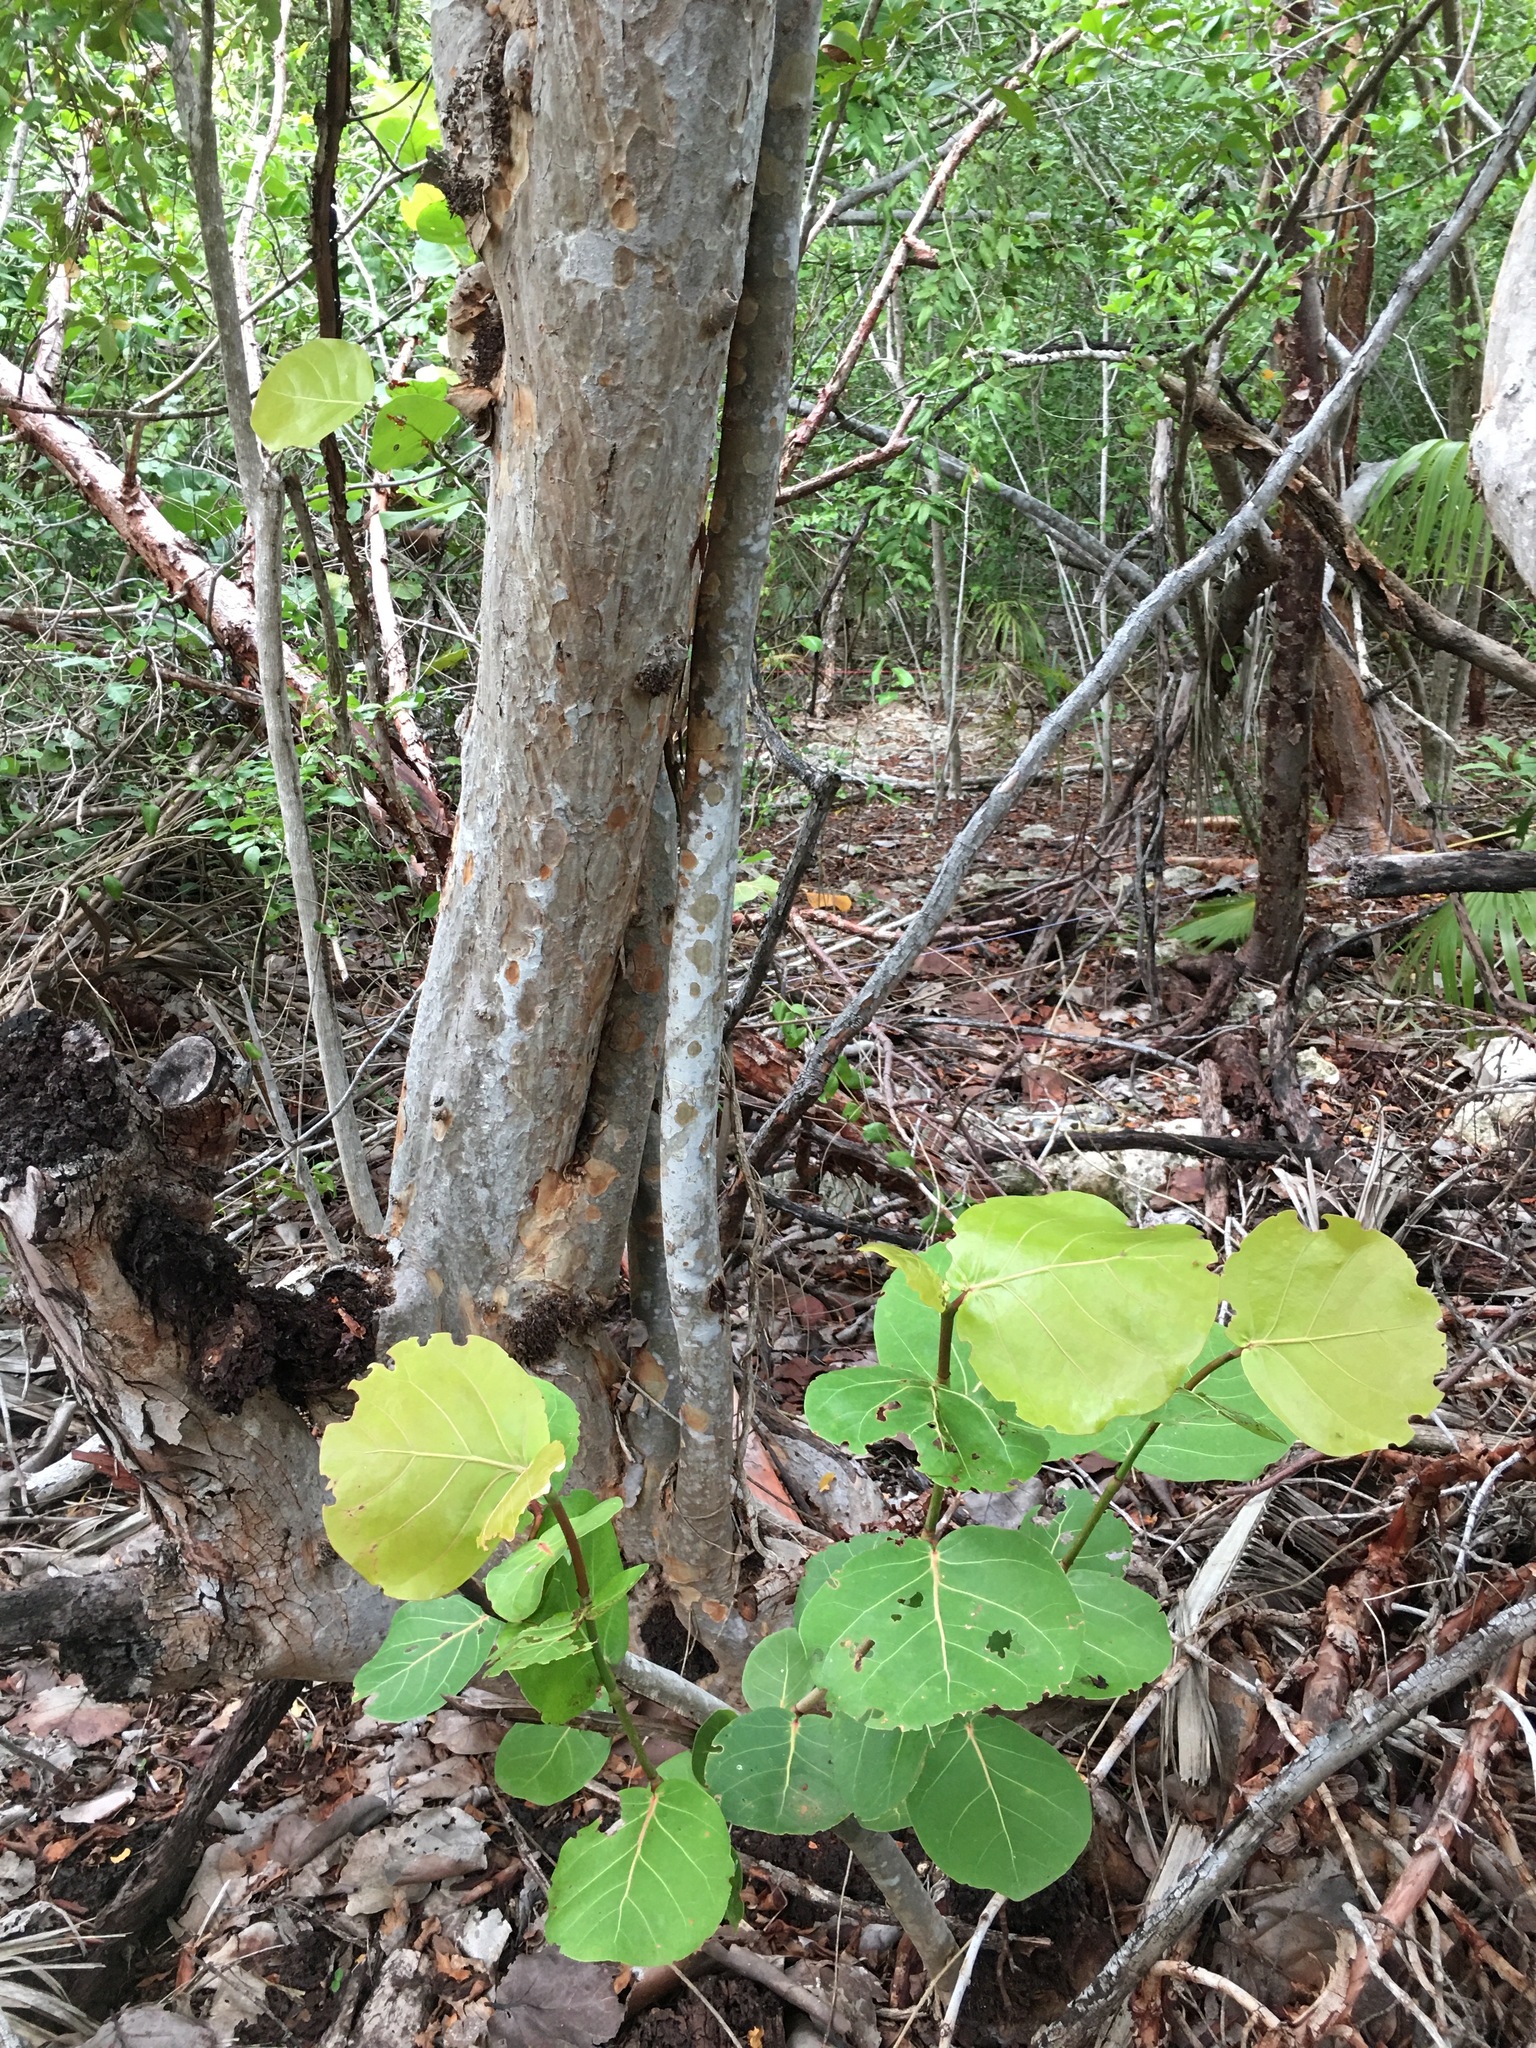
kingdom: Plantae
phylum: Tracheophyta
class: Magnoliopsida
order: Caryophyllales
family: Polygonaceae
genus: Coccoloba
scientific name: Coccoloba uvifera
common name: Seagrape
